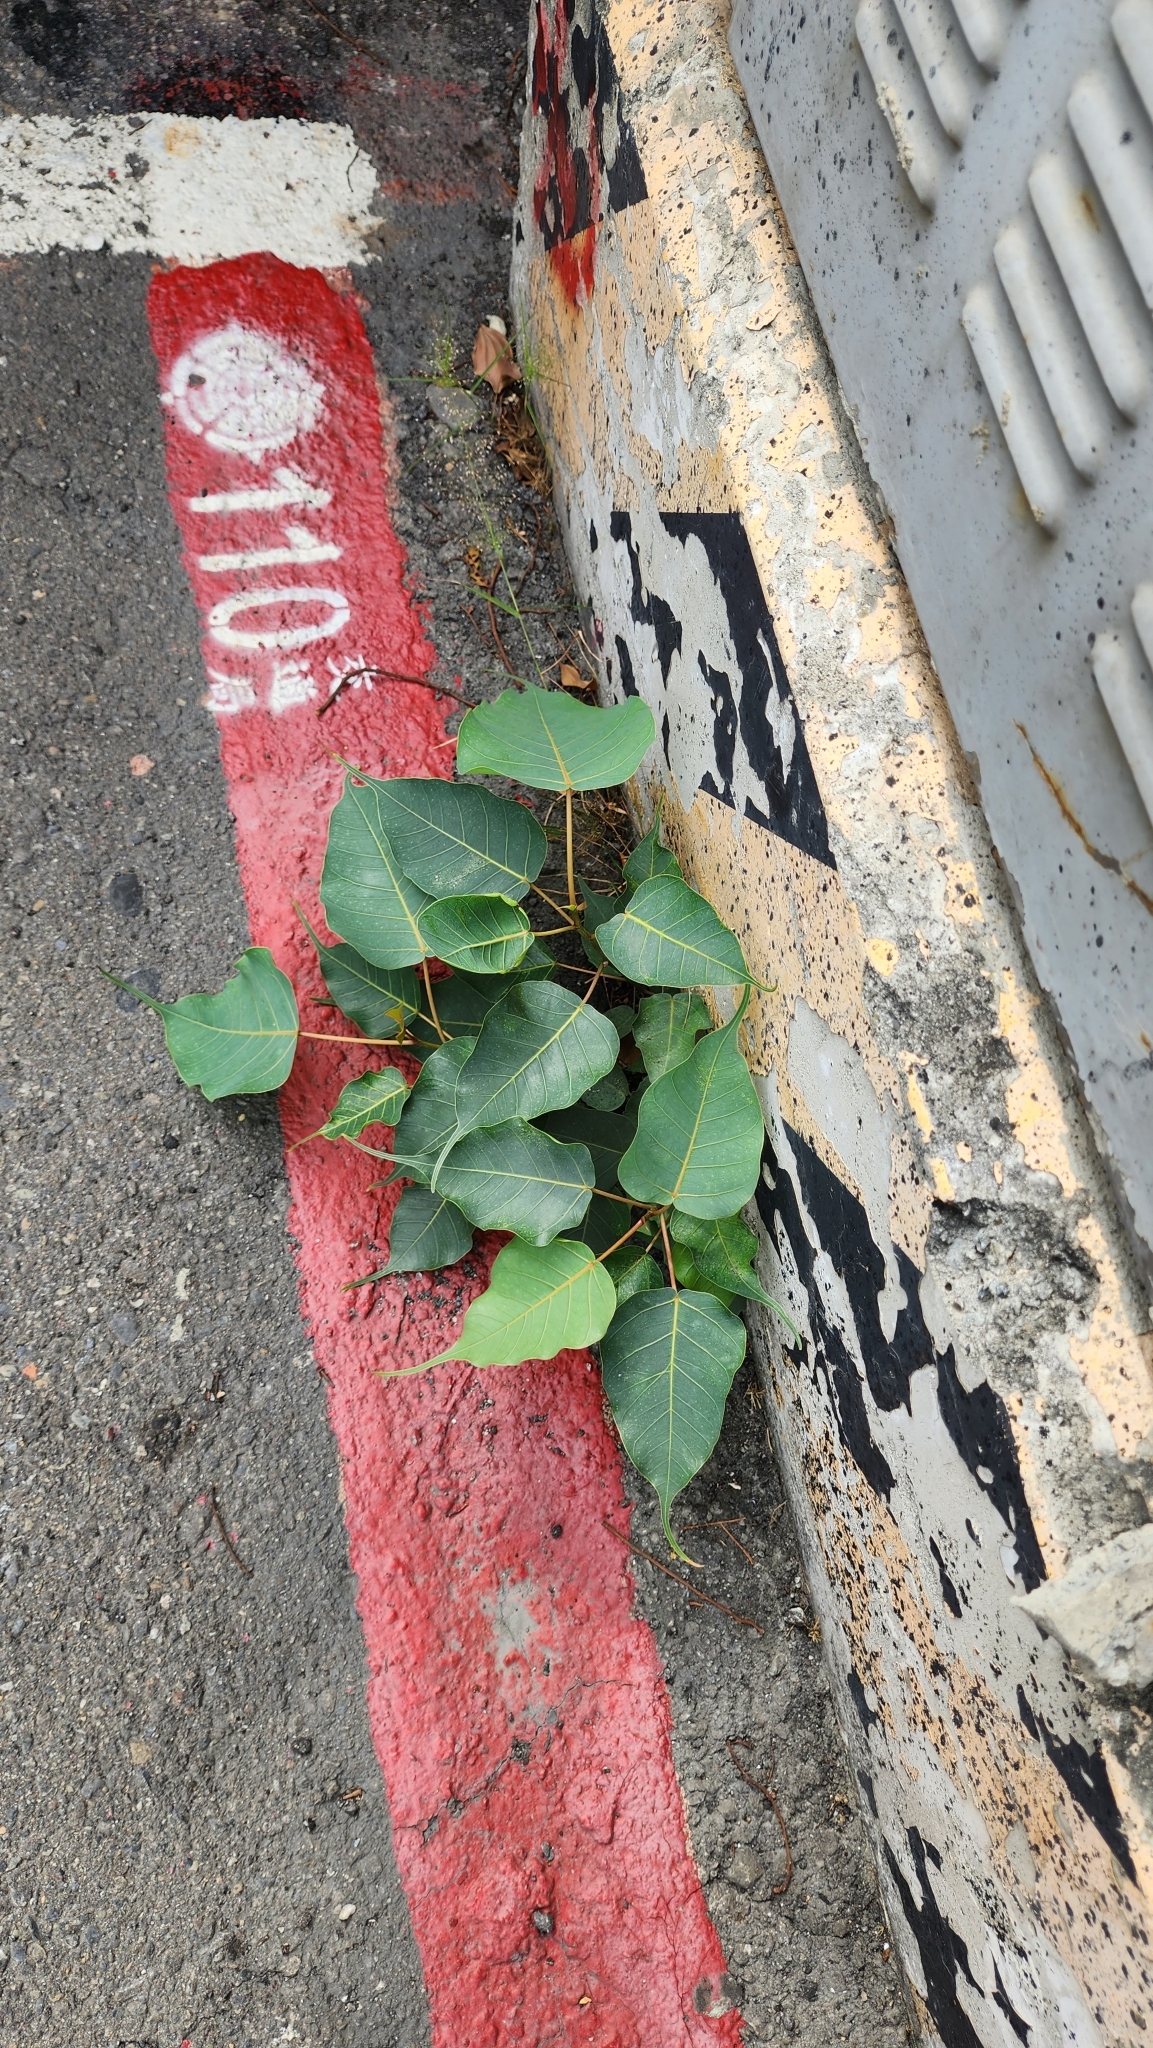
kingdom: Plantae
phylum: Tracheophyta
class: Magnoliopsida
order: Rosales
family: Moraceae
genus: Ficus
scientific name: Ficus religiosa
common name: Bodhi tree
